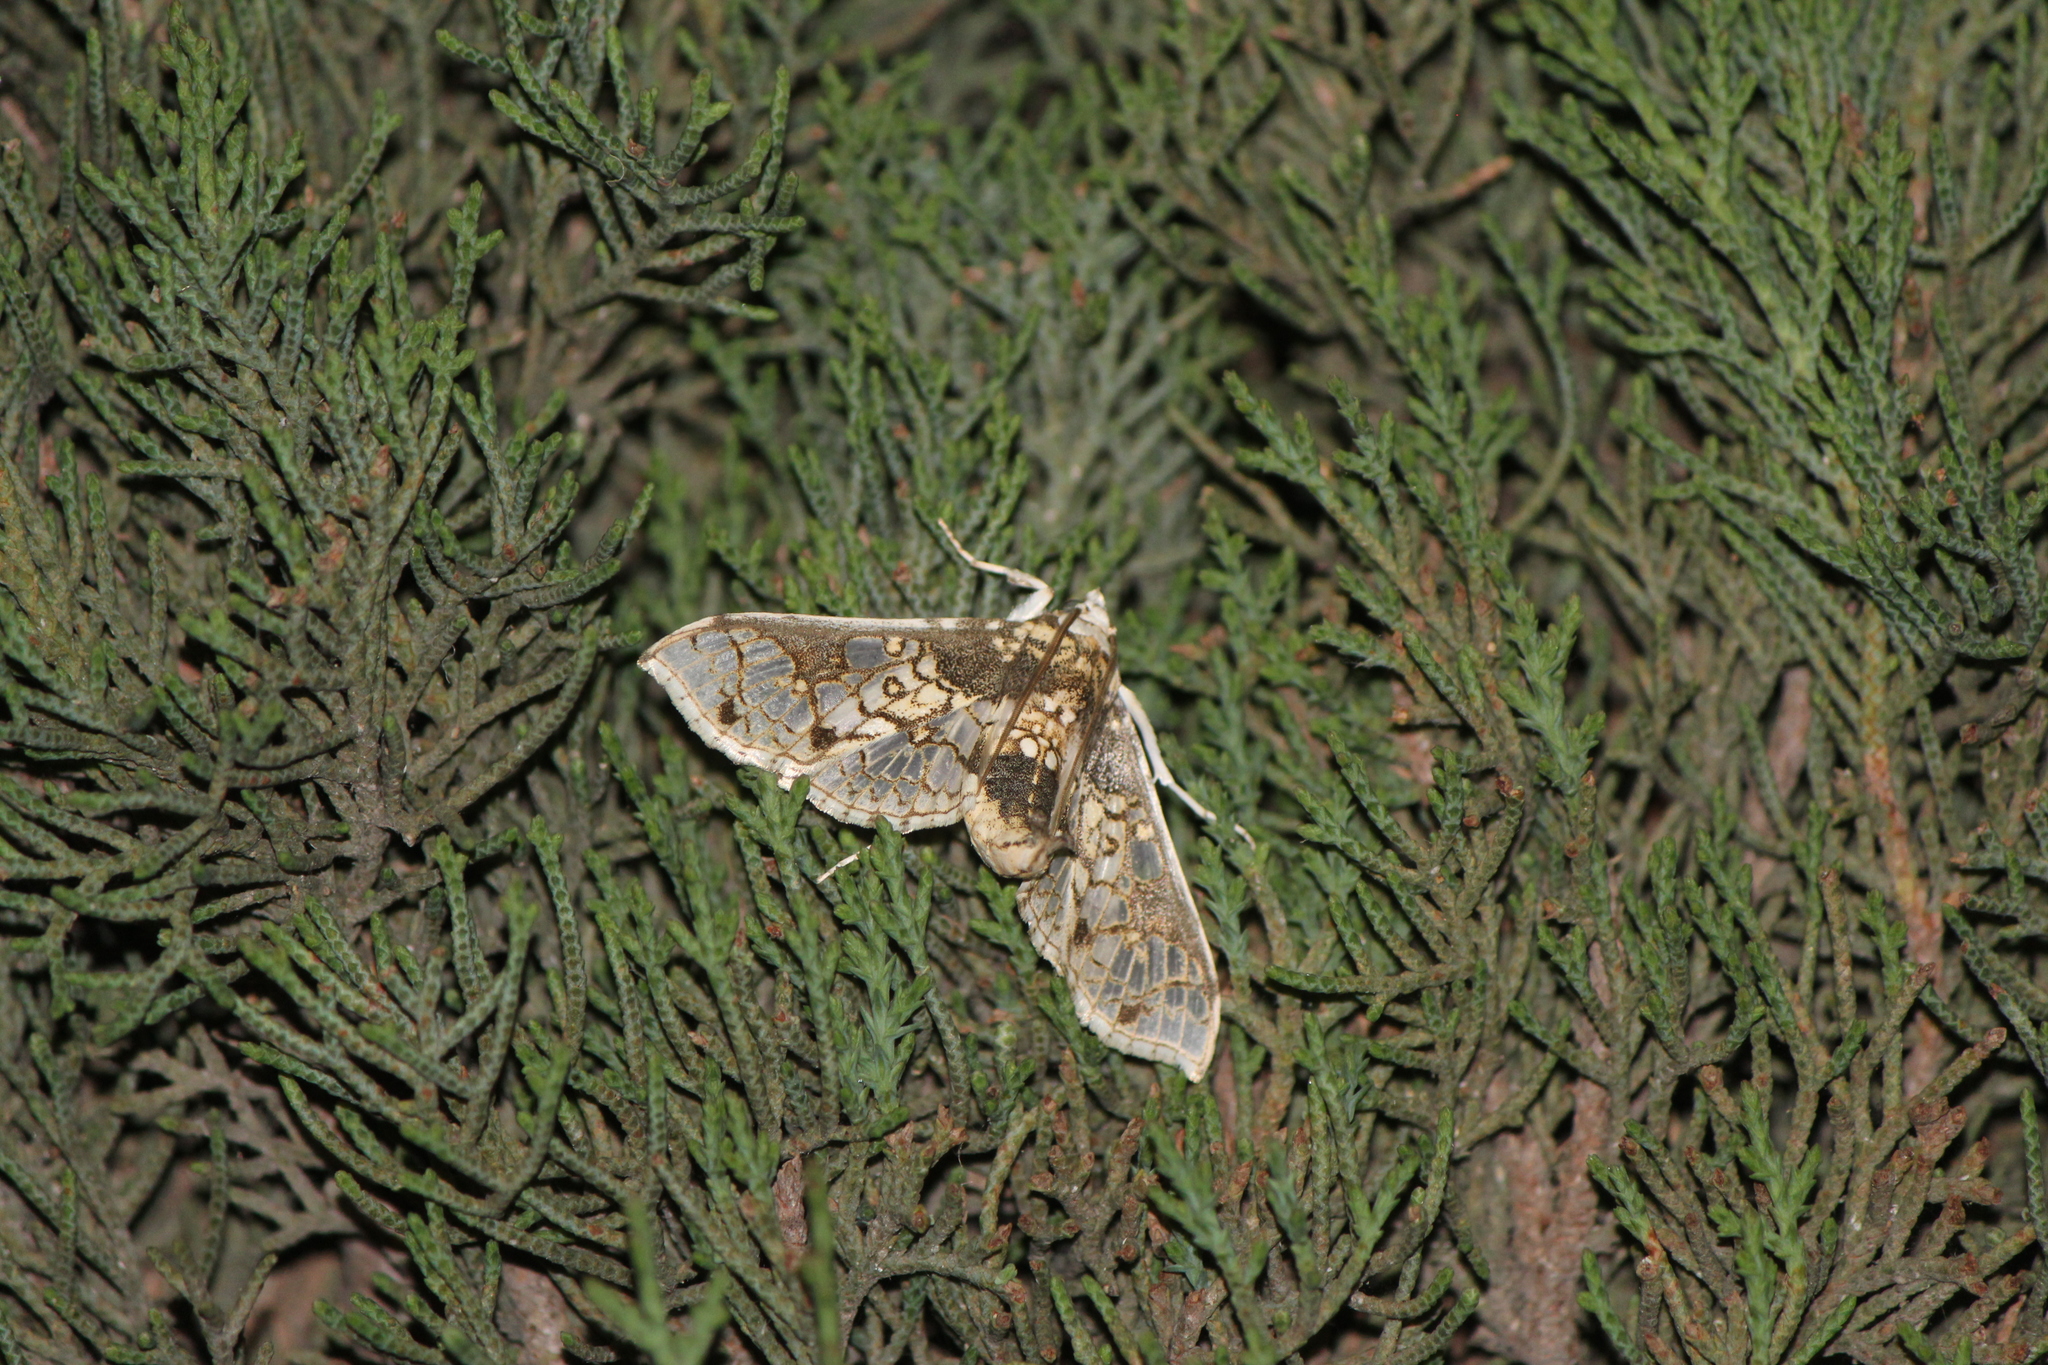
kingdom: Animalia
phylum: Arthropoda
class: Insecta
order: Lepidoptera
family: Crambidae
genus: Megastes
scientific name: Megastes praxiteles
